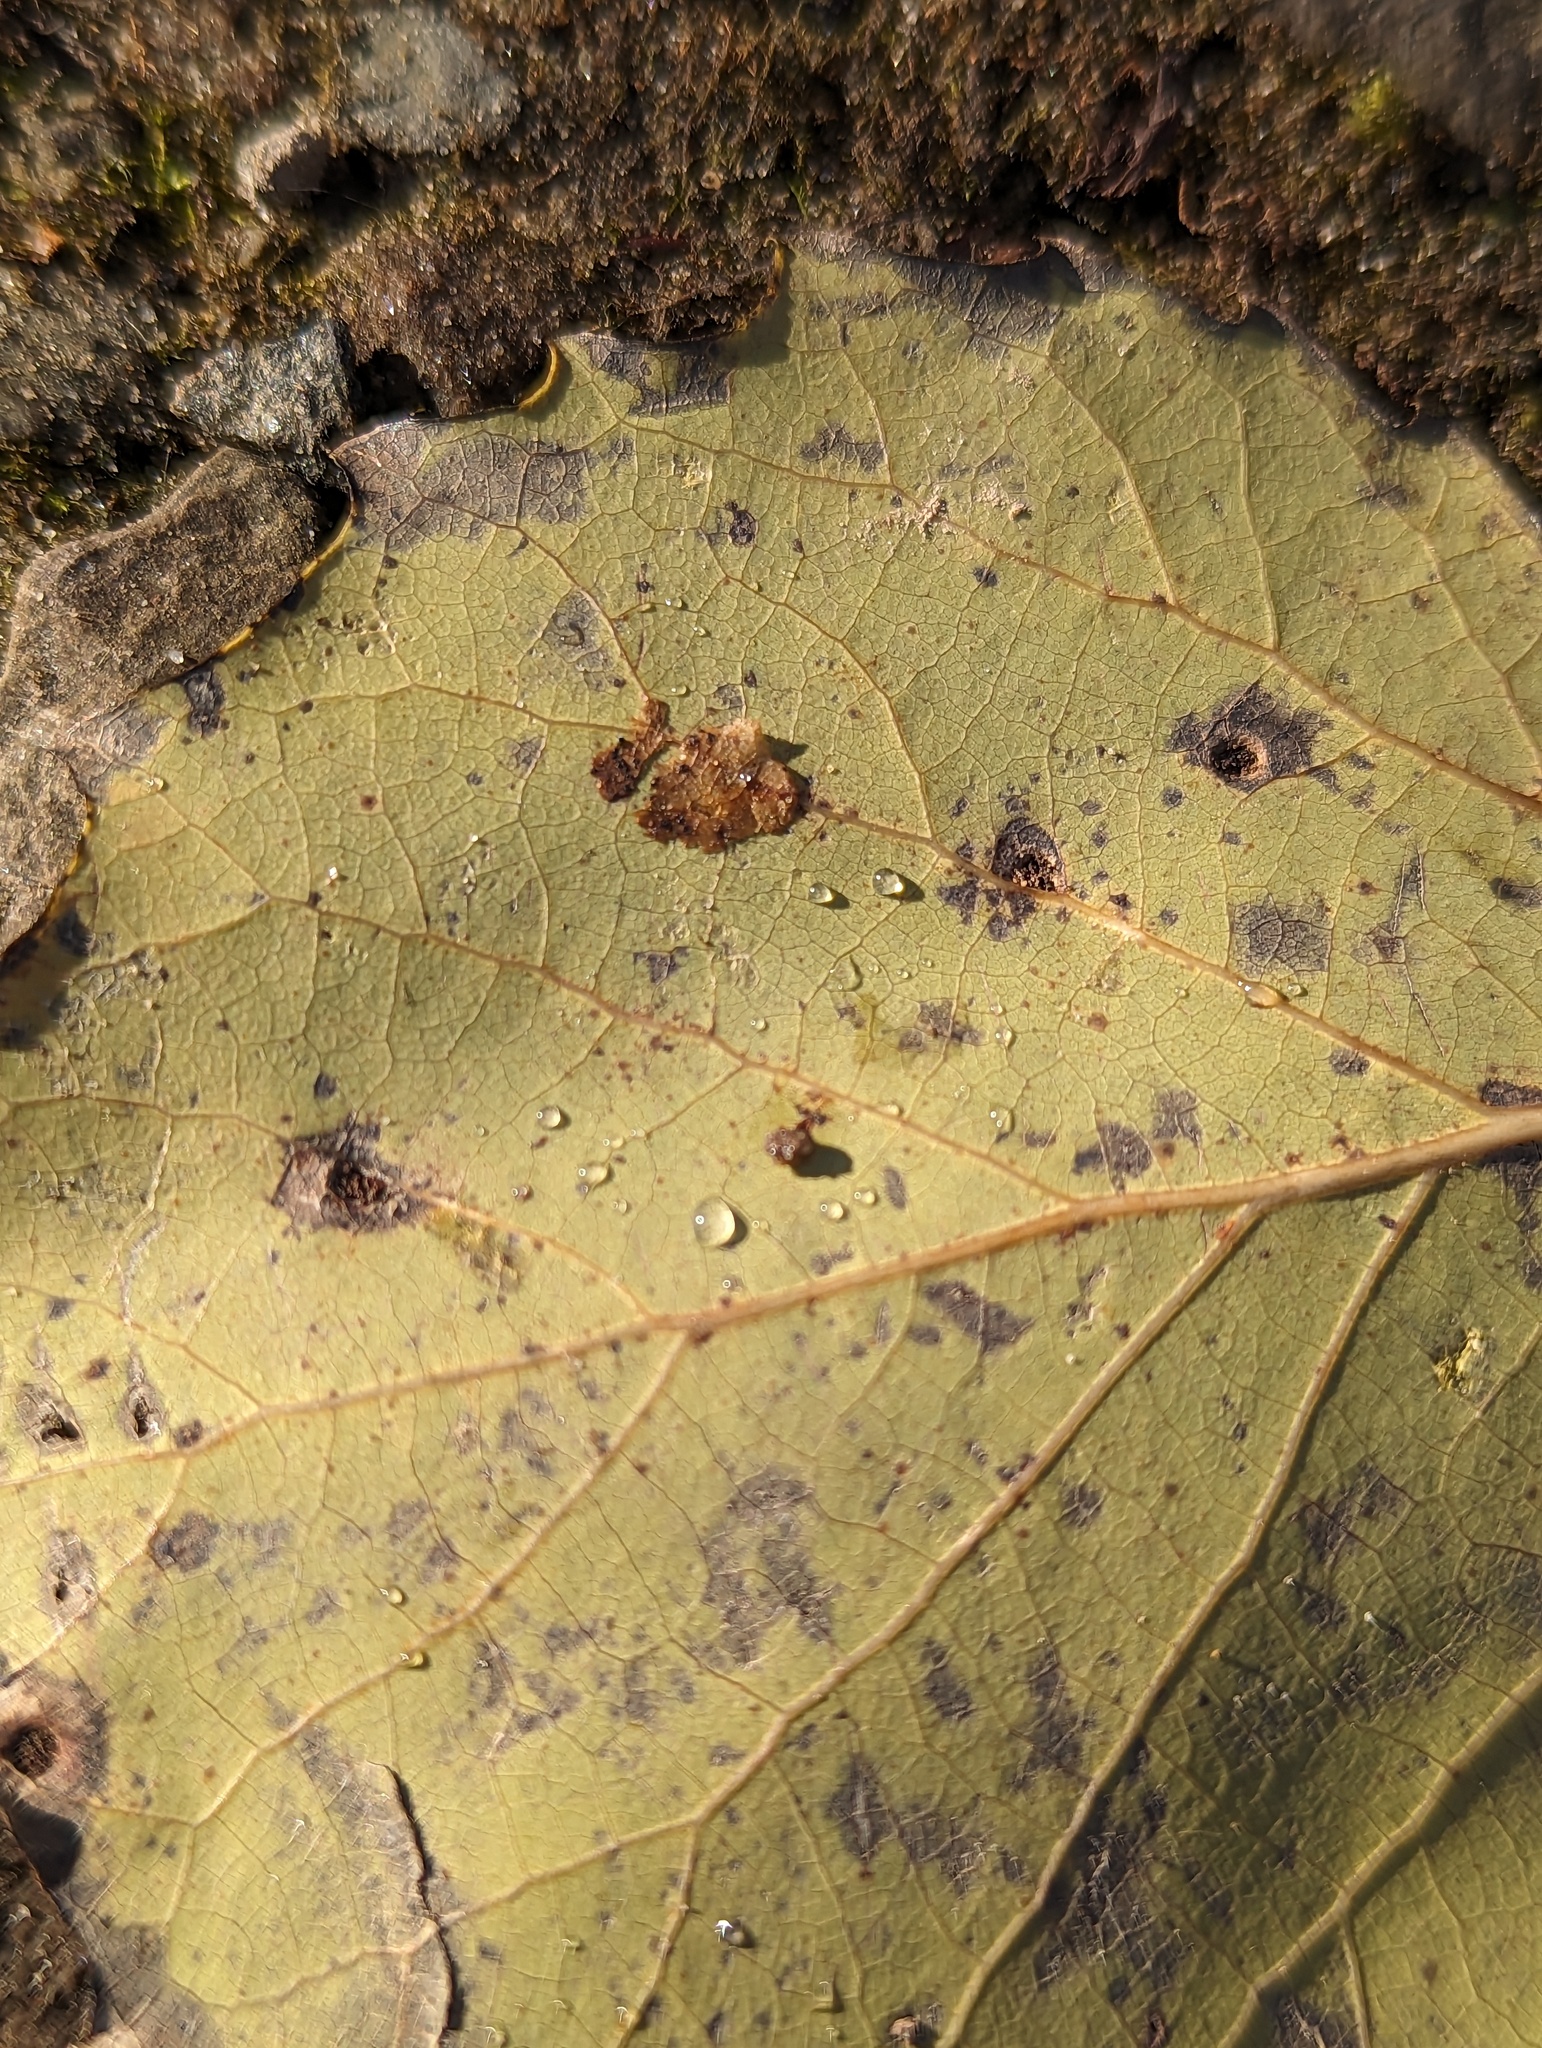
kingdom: Plantae
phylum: Tracheophyta
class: Magnoliopsida
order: Malpighiales
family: Salicaceae
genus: Populus
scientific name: Populus grandidentata
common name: Bigtooth aspen
